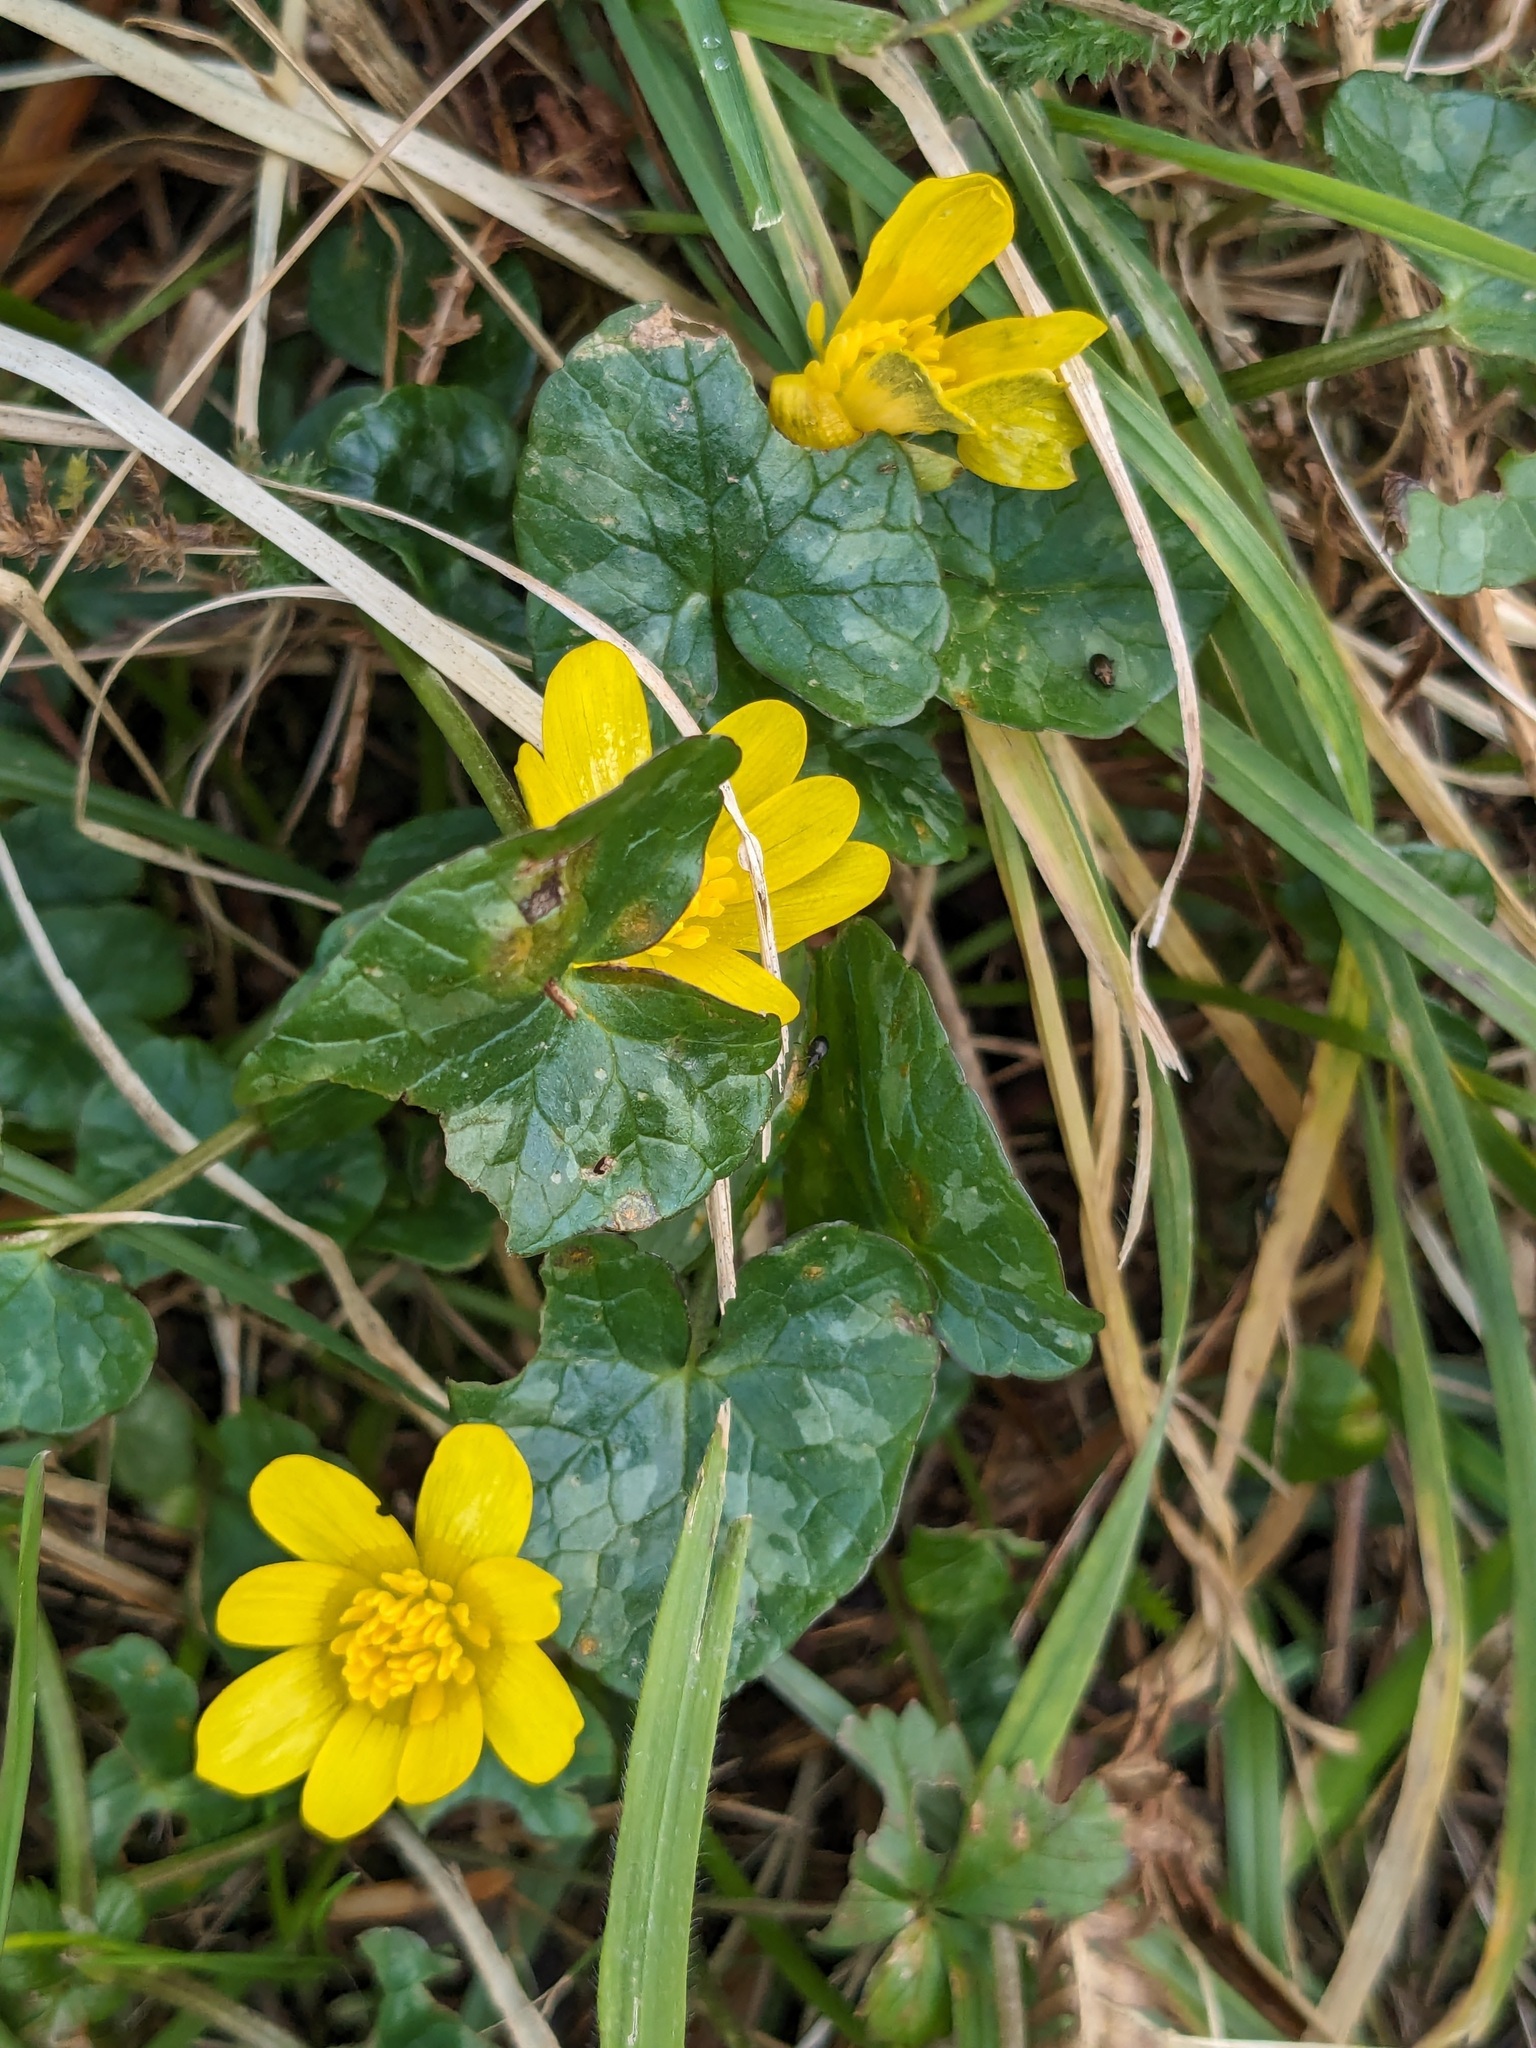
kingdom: Plantae
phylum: Tracheophyta
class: Magnoliopsida
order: Ranunculales
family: Ranunculaceae
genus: Ficaria
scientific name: Ficaria verna
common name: Lesser celandine
